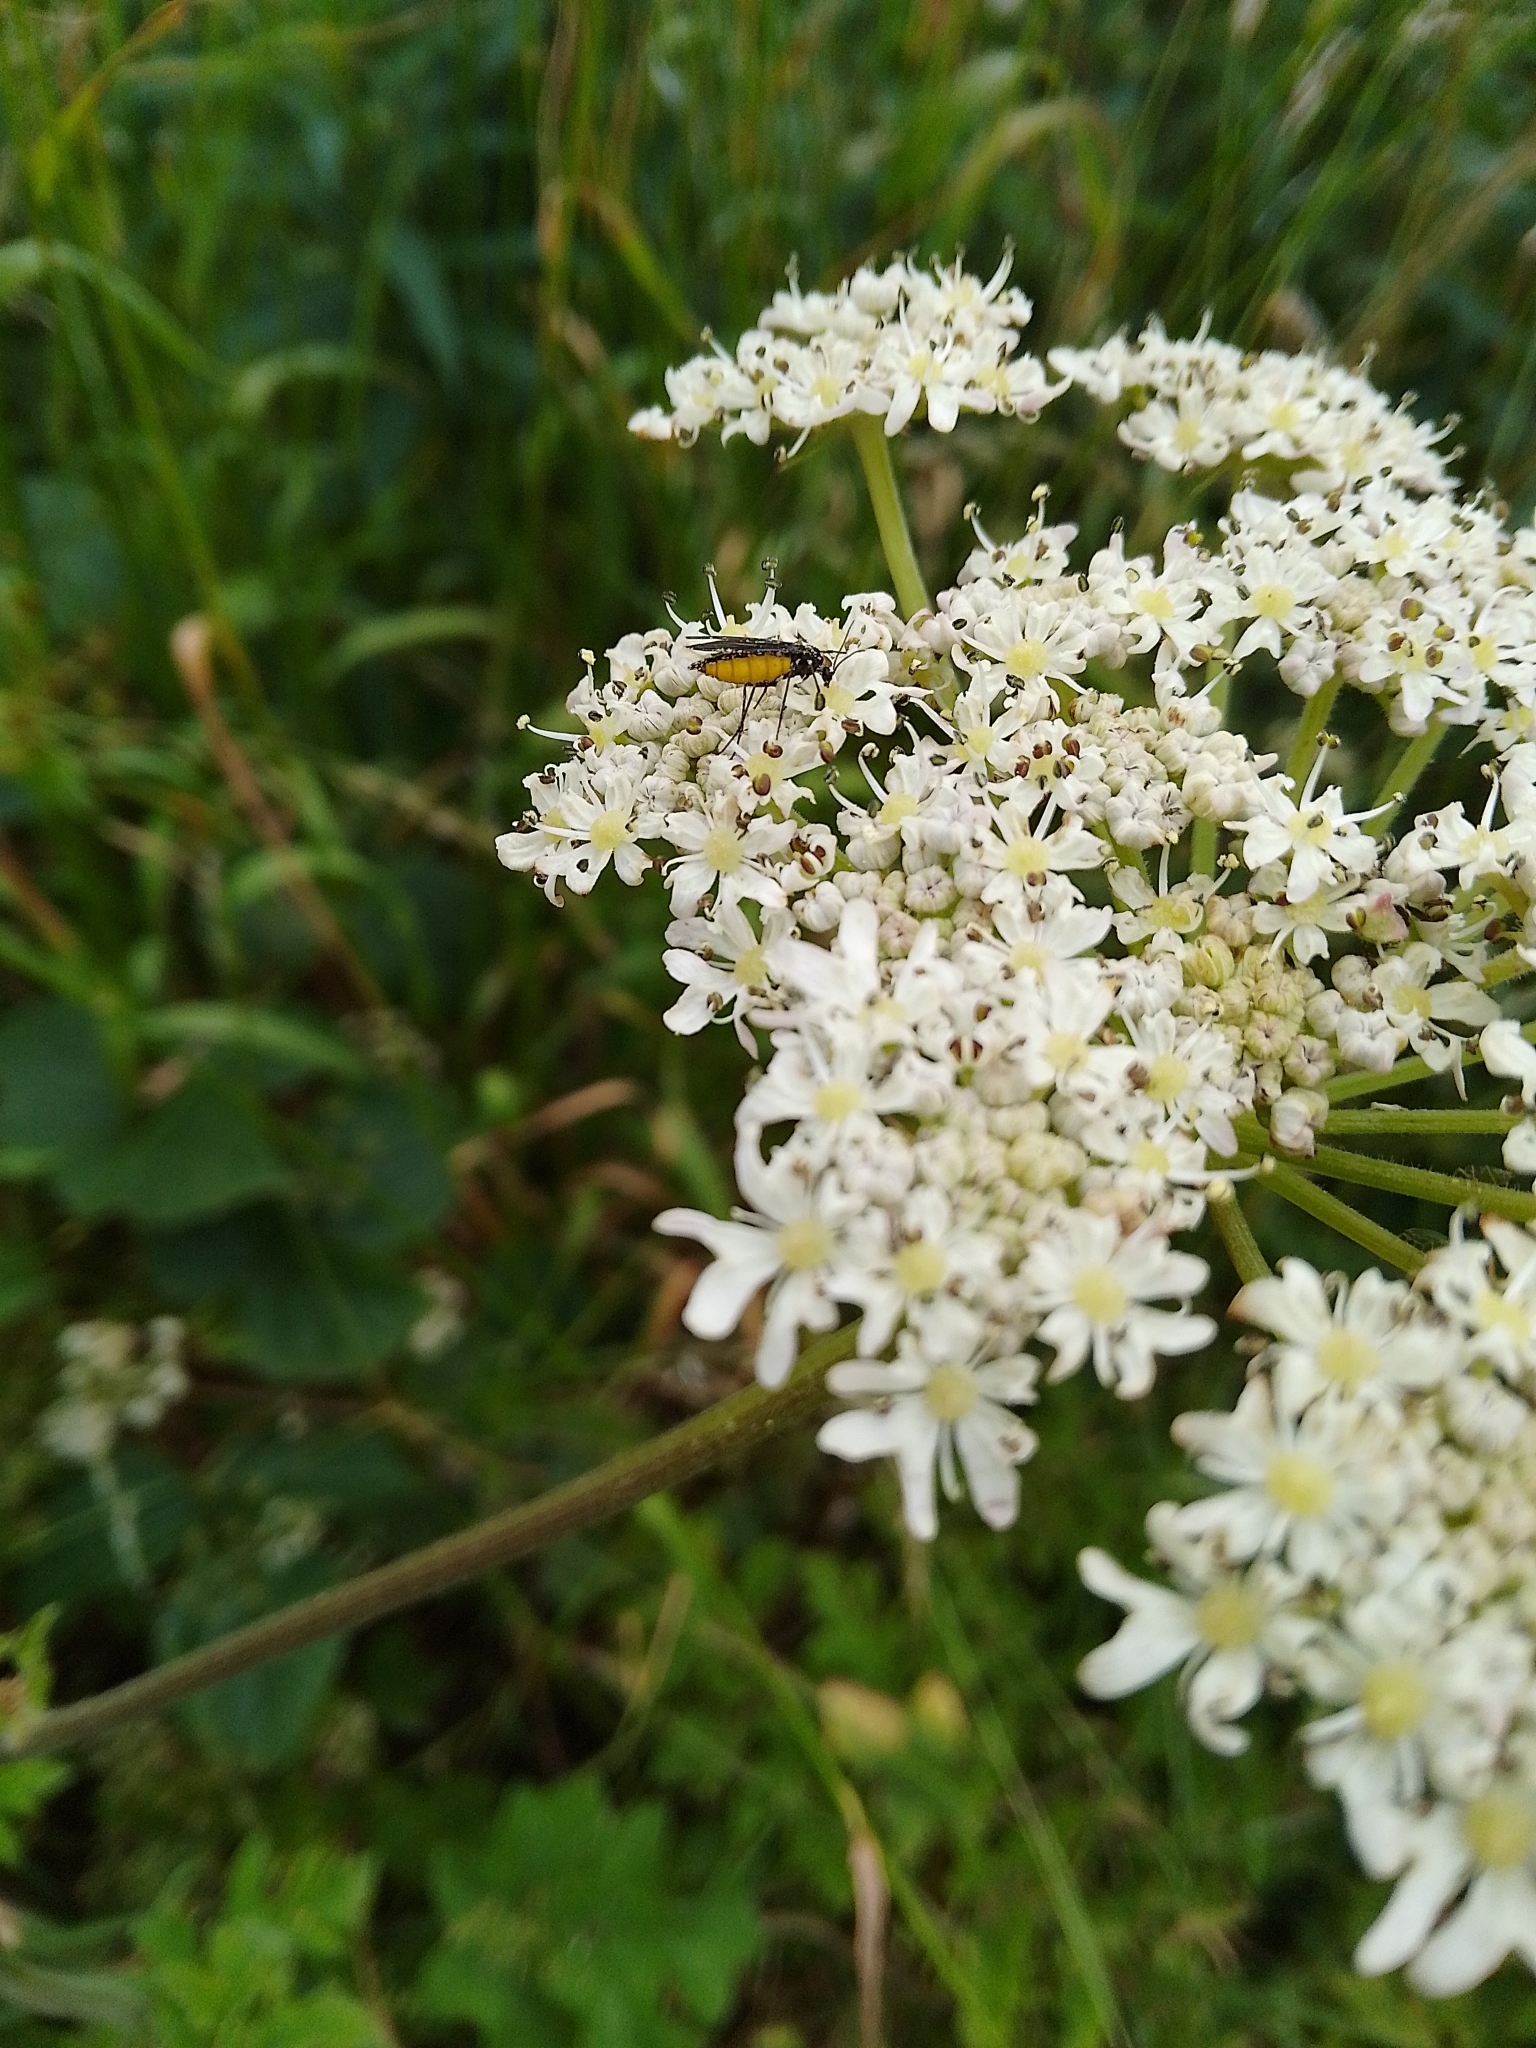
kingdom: Animalia
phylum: Arthropoda
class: Insecta
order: Diptera
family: Sciaridae
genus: Sciara
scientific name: Sciara hemerobioides
